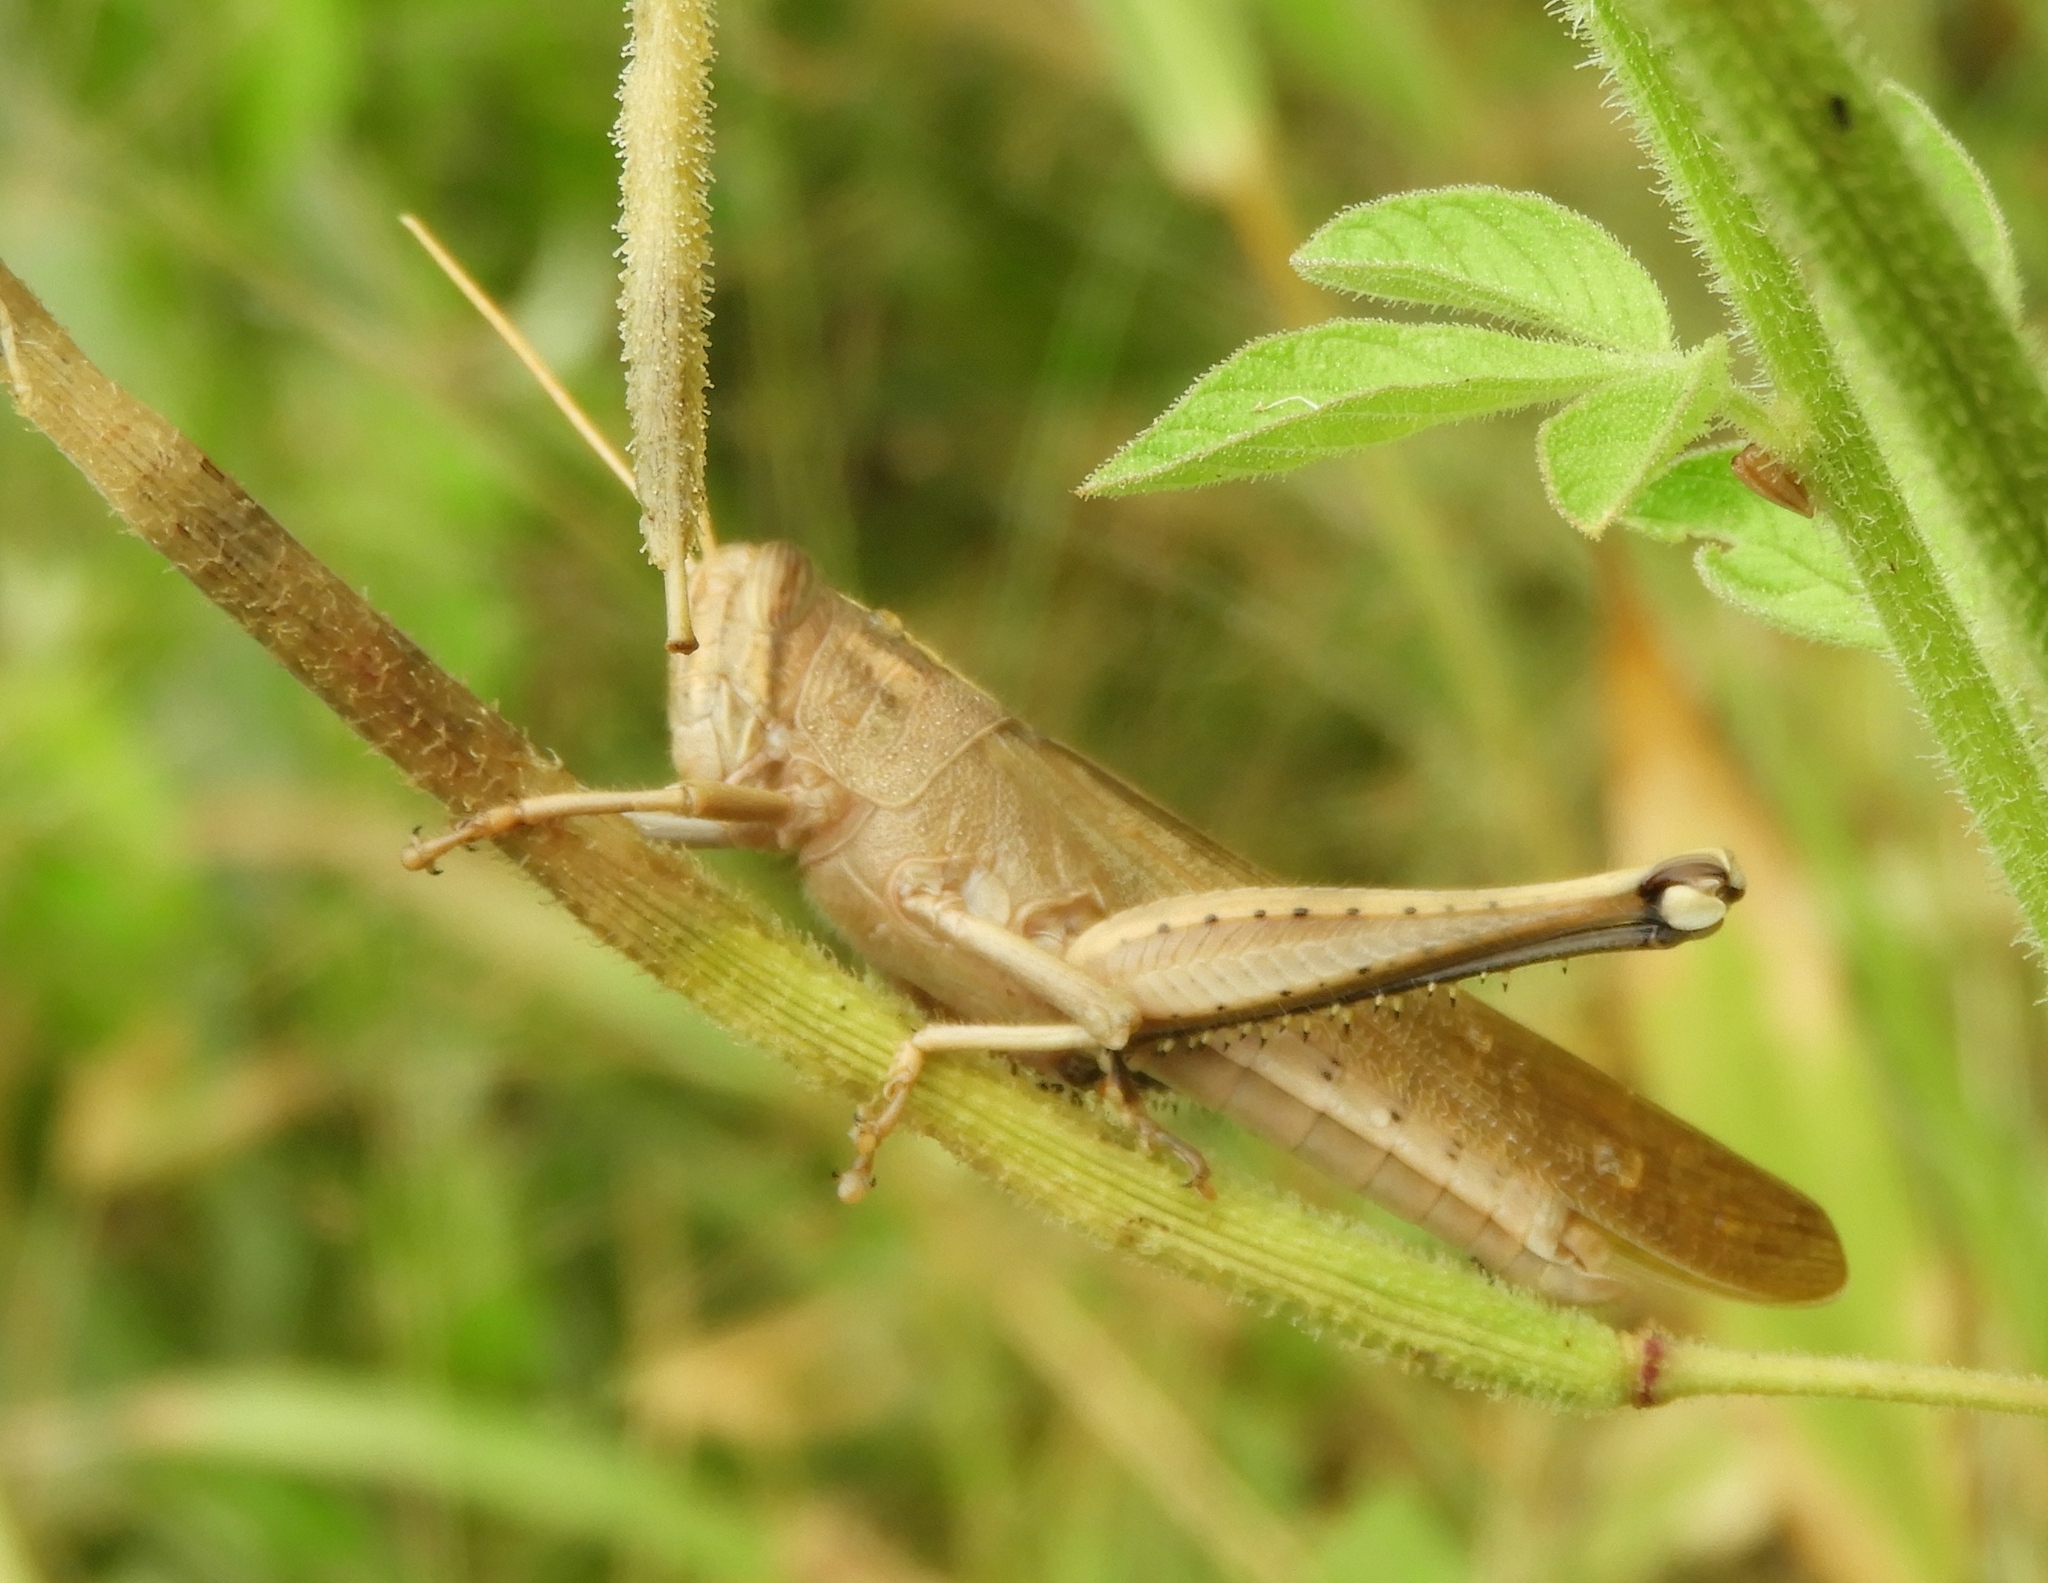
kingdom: Animalia
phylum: Arthropoda
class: Insecta
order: Orthoptera
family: Acrididae
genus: Schistocerca
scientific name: Schistocerca camerata
